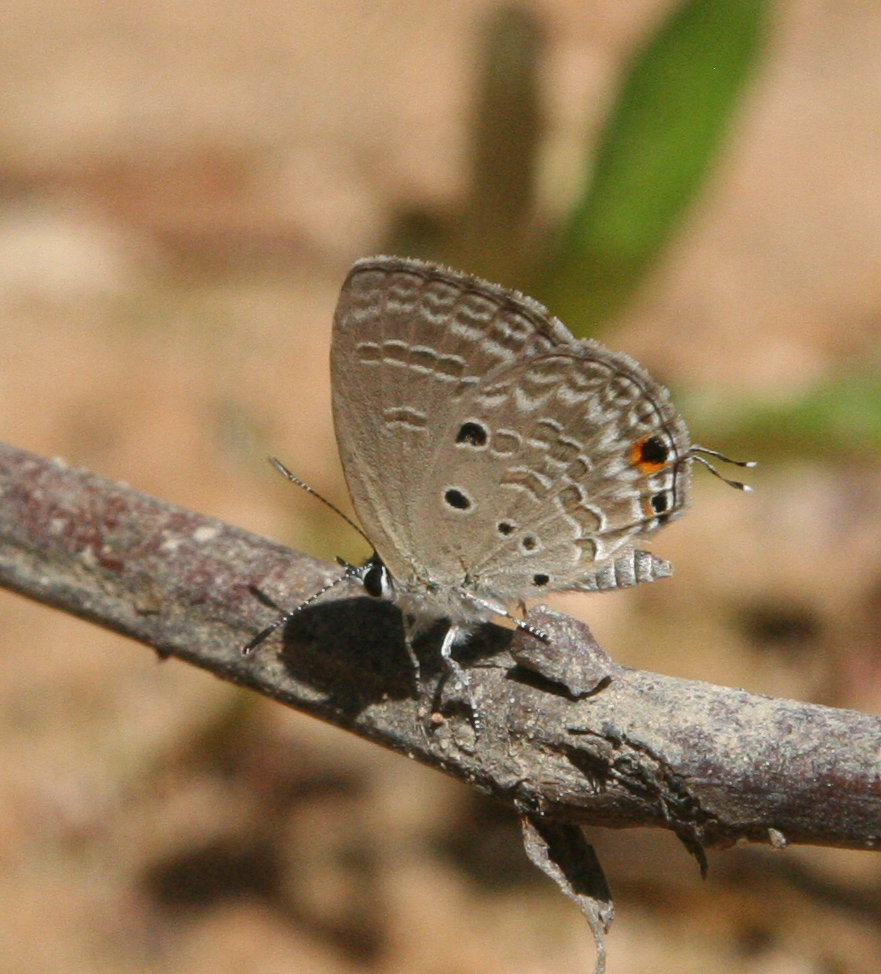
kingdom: Animalia
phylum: Arthropoda
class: Insecta
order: Lepidoptera
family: Lycaenidae
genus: Luthrodes
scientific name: Luthrodes pandava
